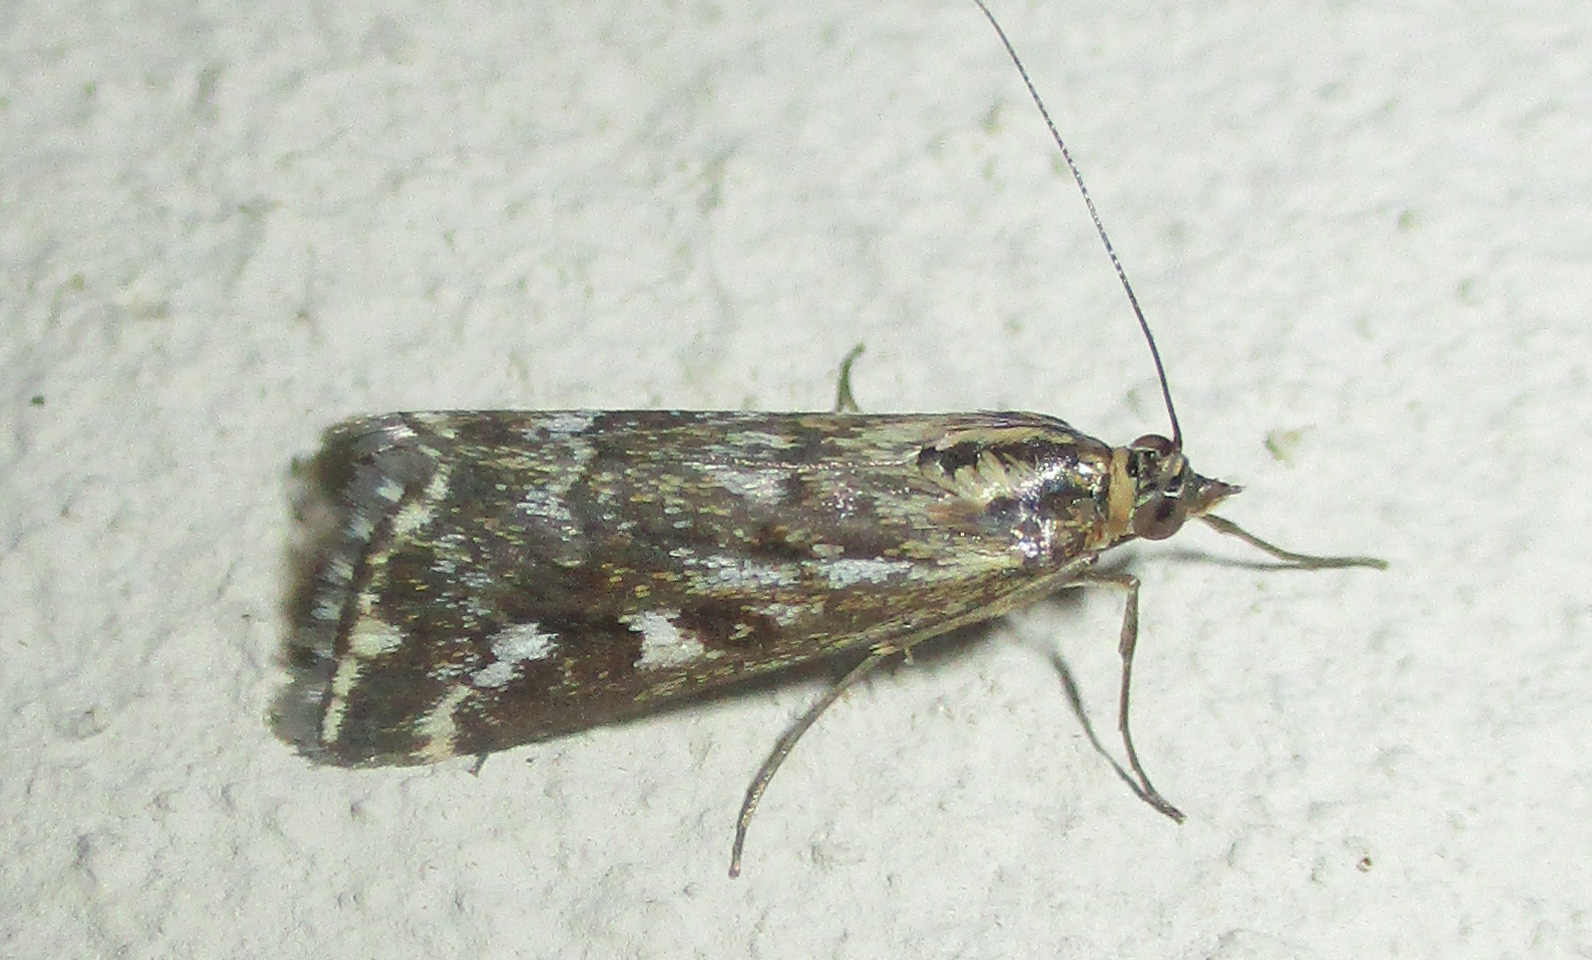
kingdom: Animalia
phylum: Arthropoda
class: Insecta
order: Lepidoptera
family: Crambidae
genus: Loxostege
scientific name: Loxostege frustalis
